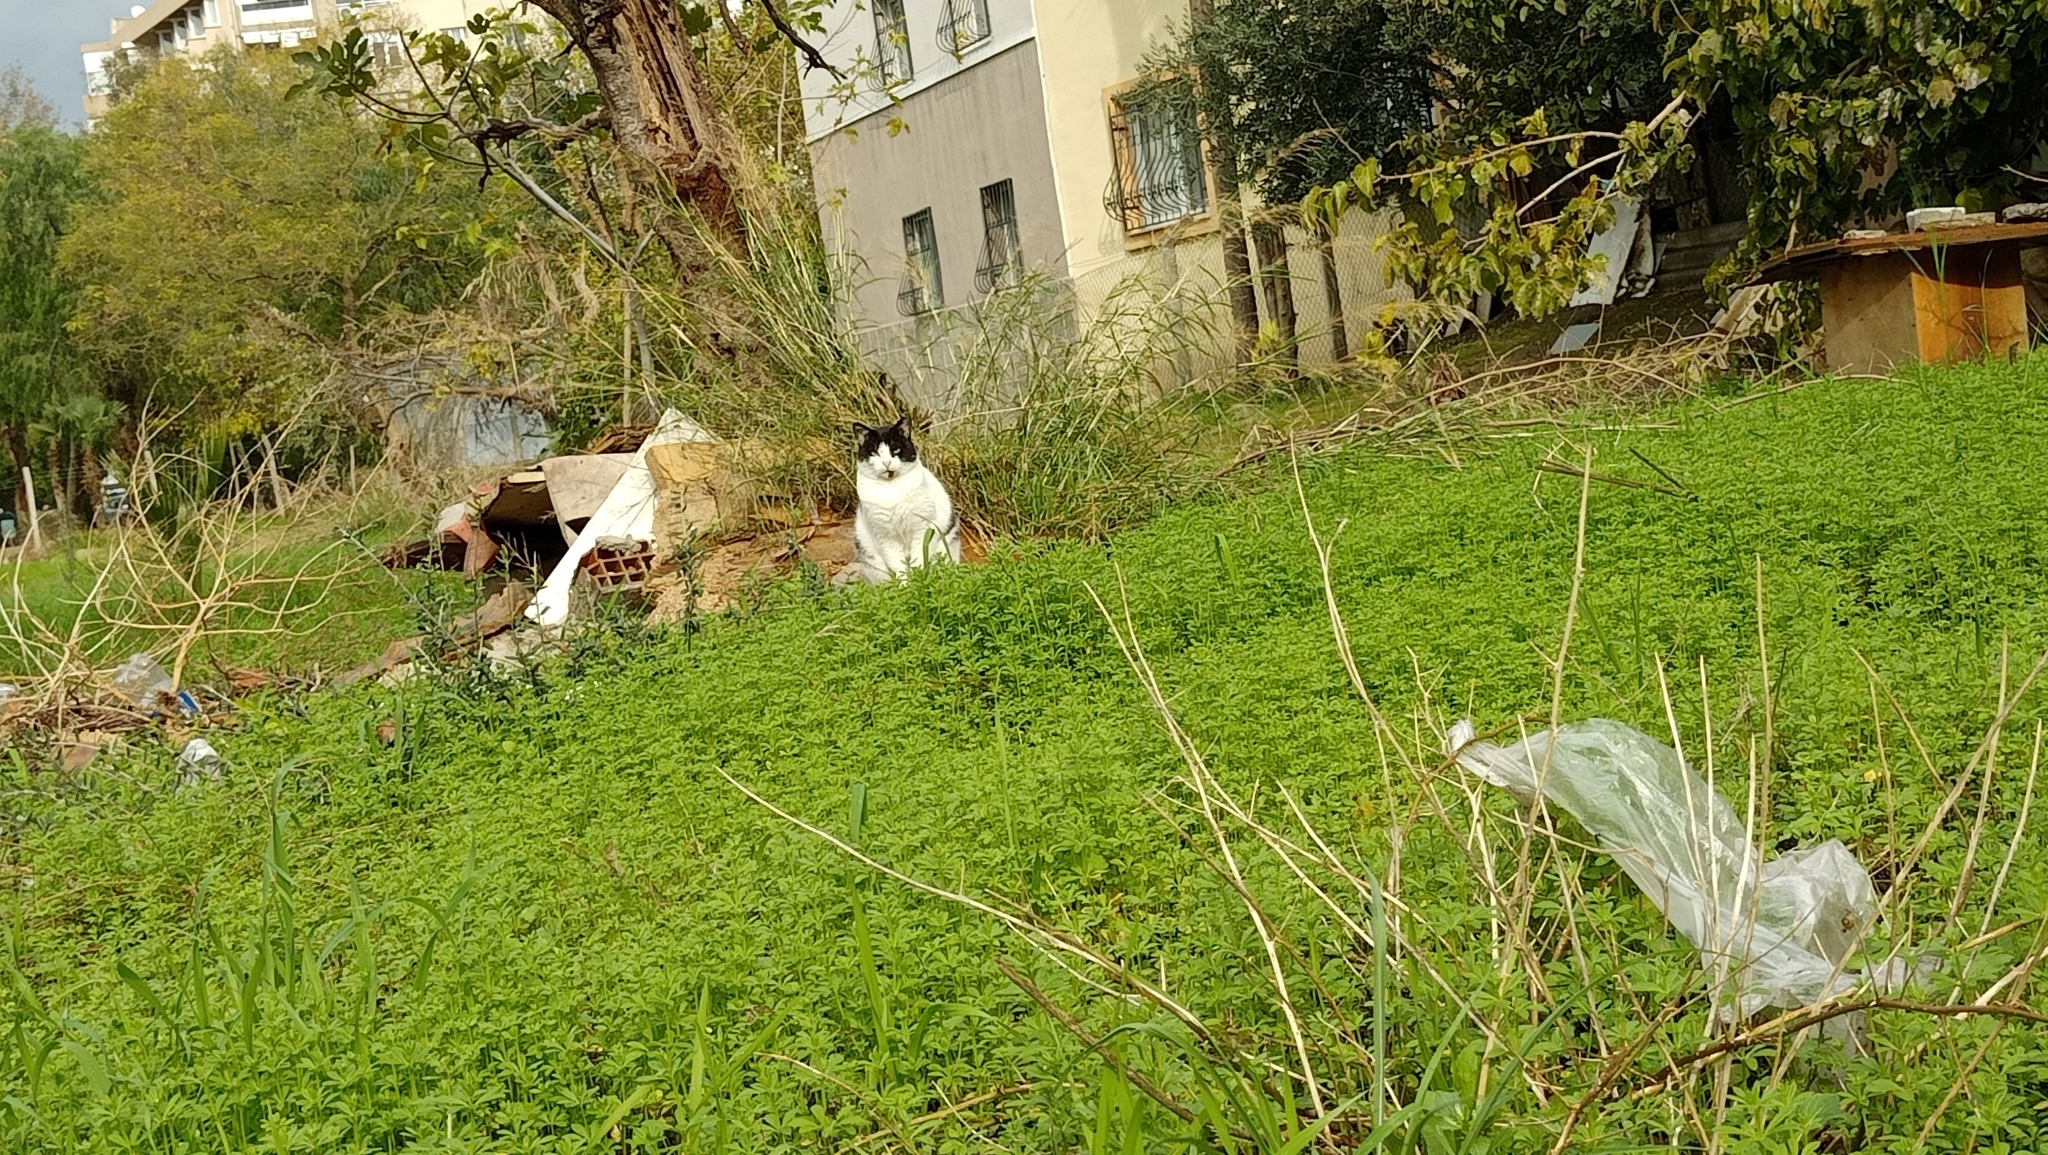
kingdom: Animalia
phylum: Chordata
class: Mammalia
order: Carnivora
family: Felidae
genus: Felis
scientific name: Felis catus
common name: Domestic cat
